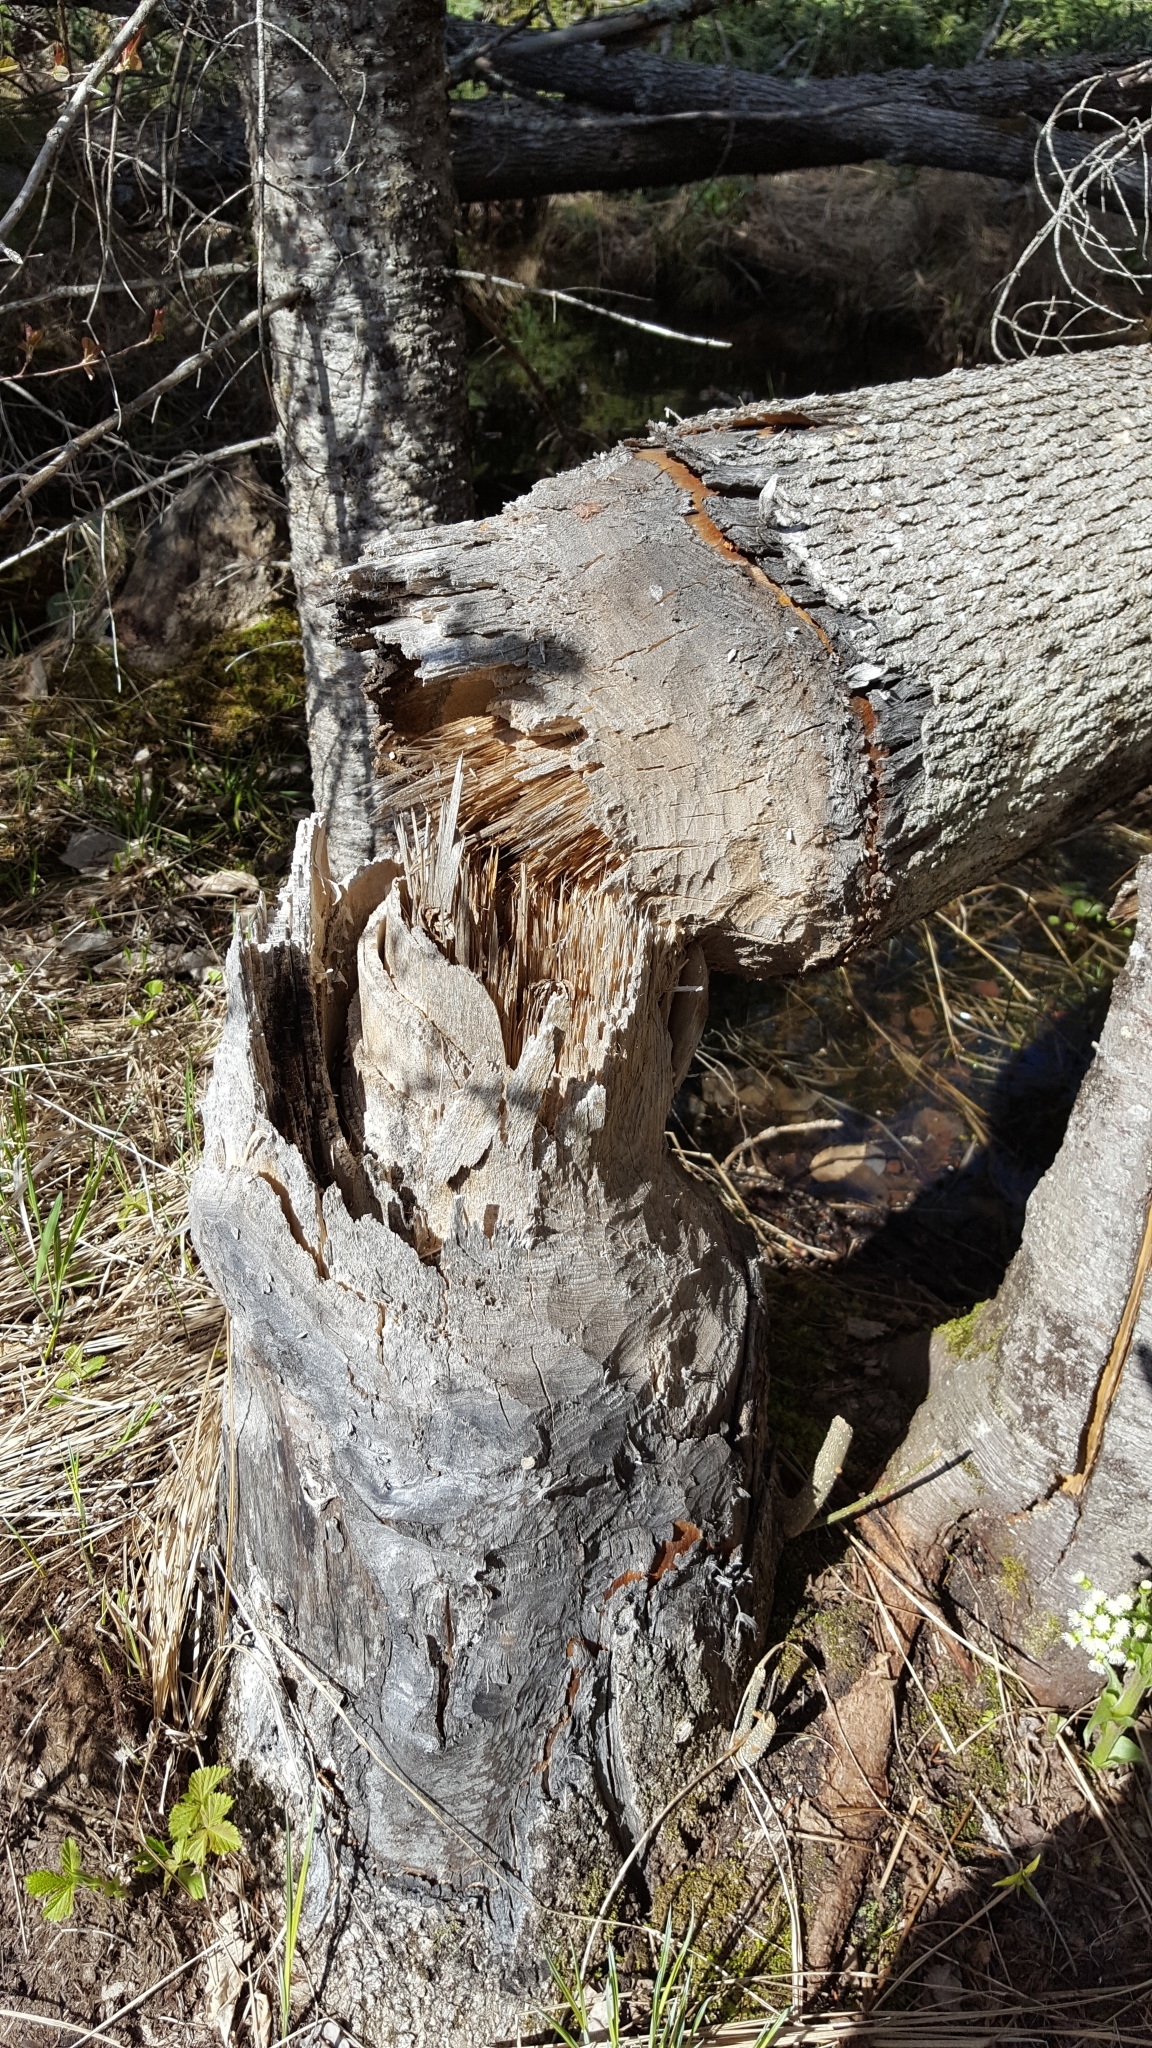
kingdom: Animalia
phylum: Chordata
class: Mammalia
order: Rodentia
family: Castoridae
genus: Castor
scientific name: Castor canadensis
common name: American beaver
